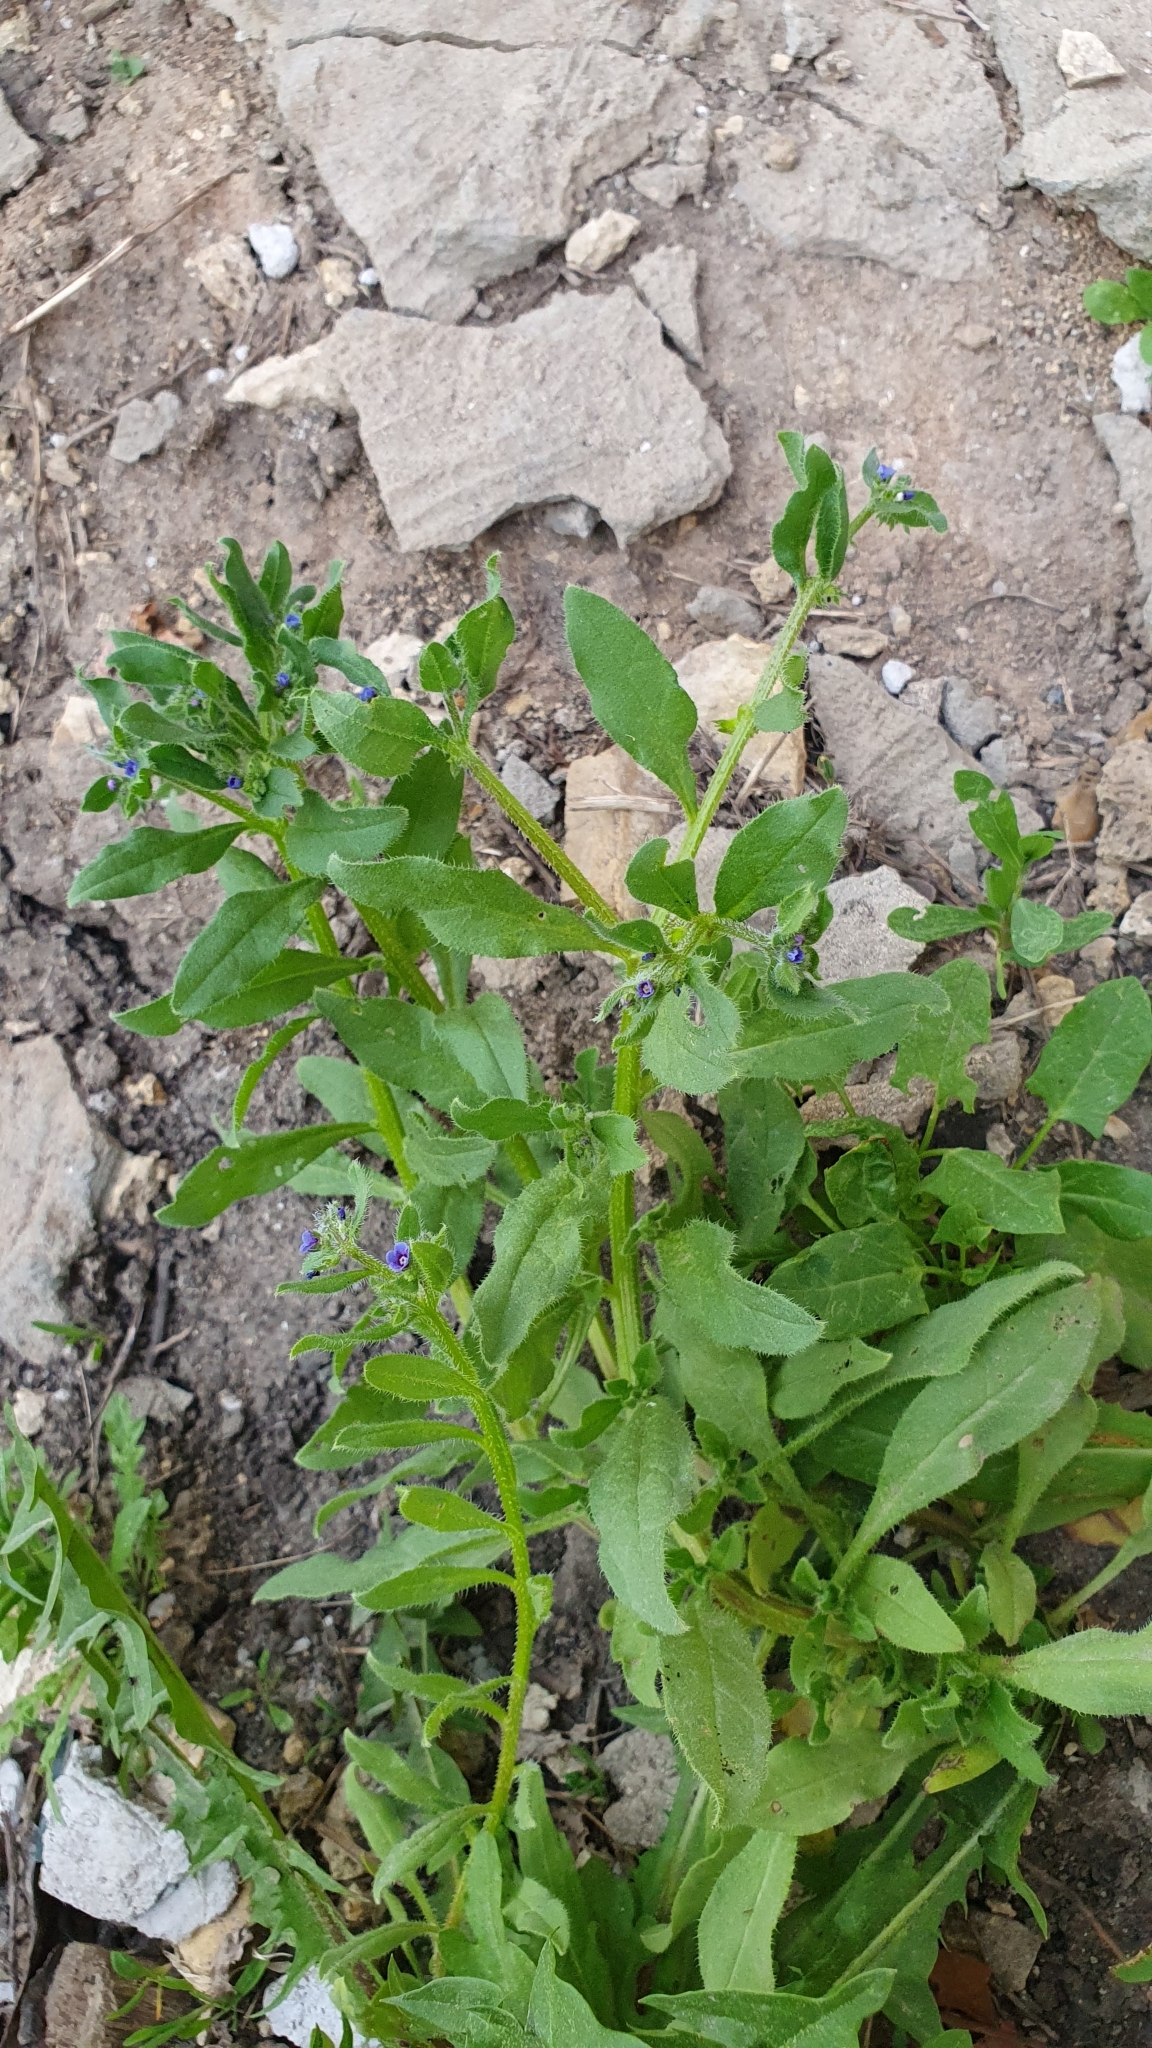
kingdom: Plantae
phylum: Tracheophyta
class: Magnoliopsida
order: Boraginales
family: Boraginaceae
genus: Asperugo
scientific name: Asperugo procumbens
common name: Madwort
